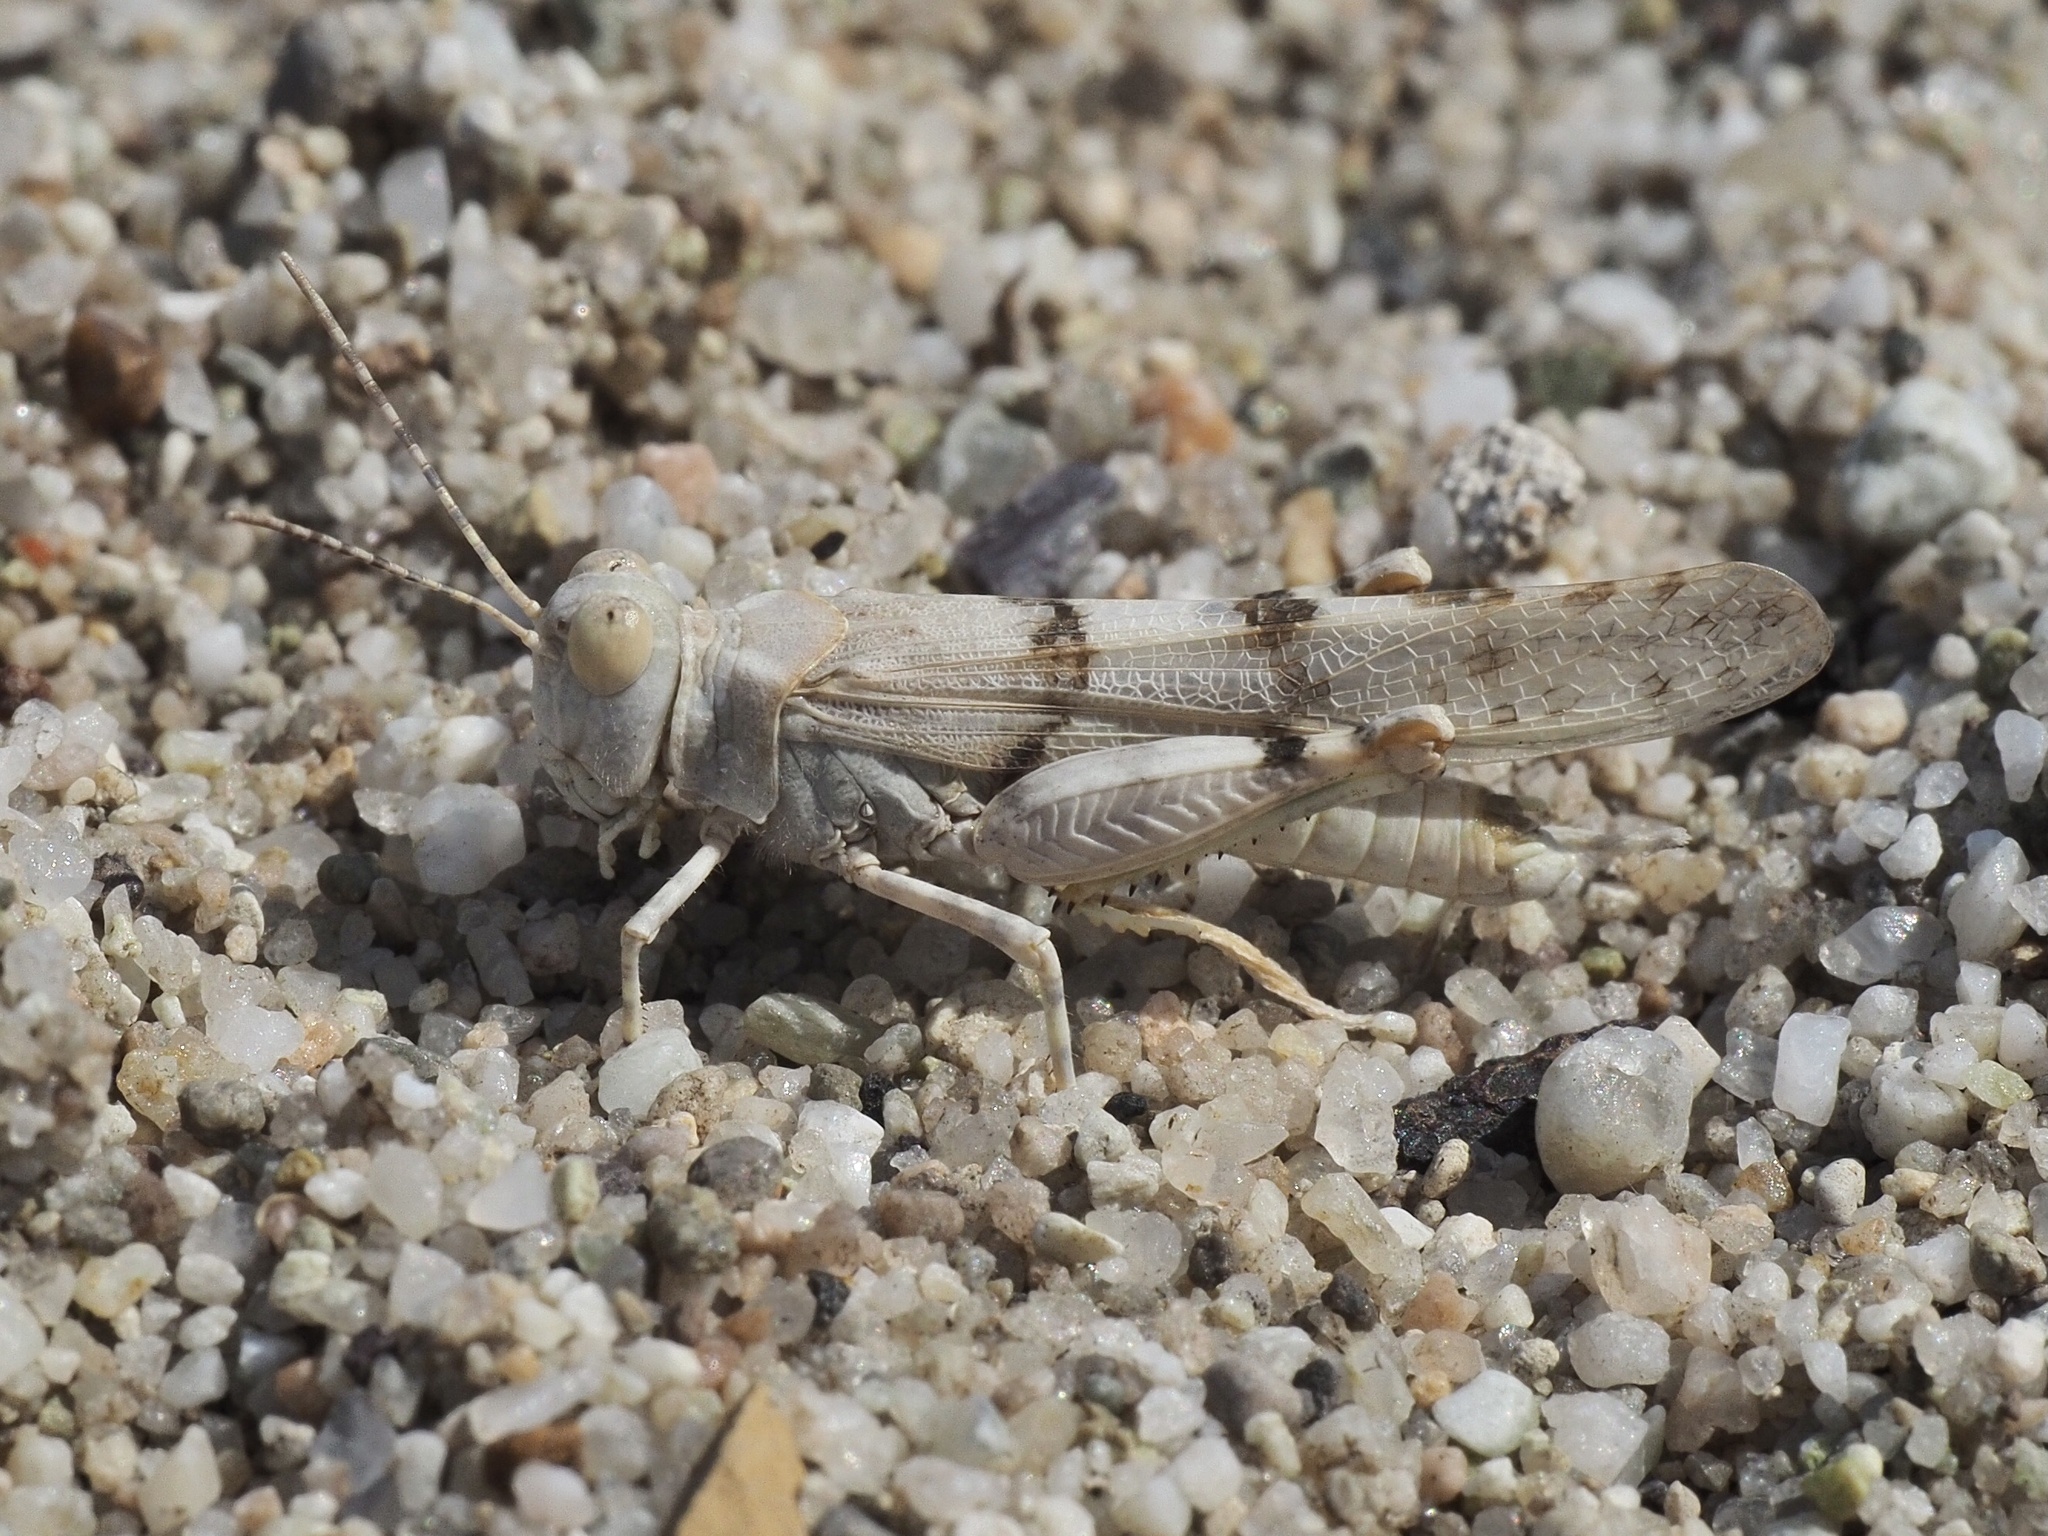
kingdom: Animalia
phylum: Arthropoda
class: Insecta
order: Orthoptera
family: Acrididae
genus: Sphingonotus
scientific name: Sphingonotus caerulans
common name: Blue-winged locust
